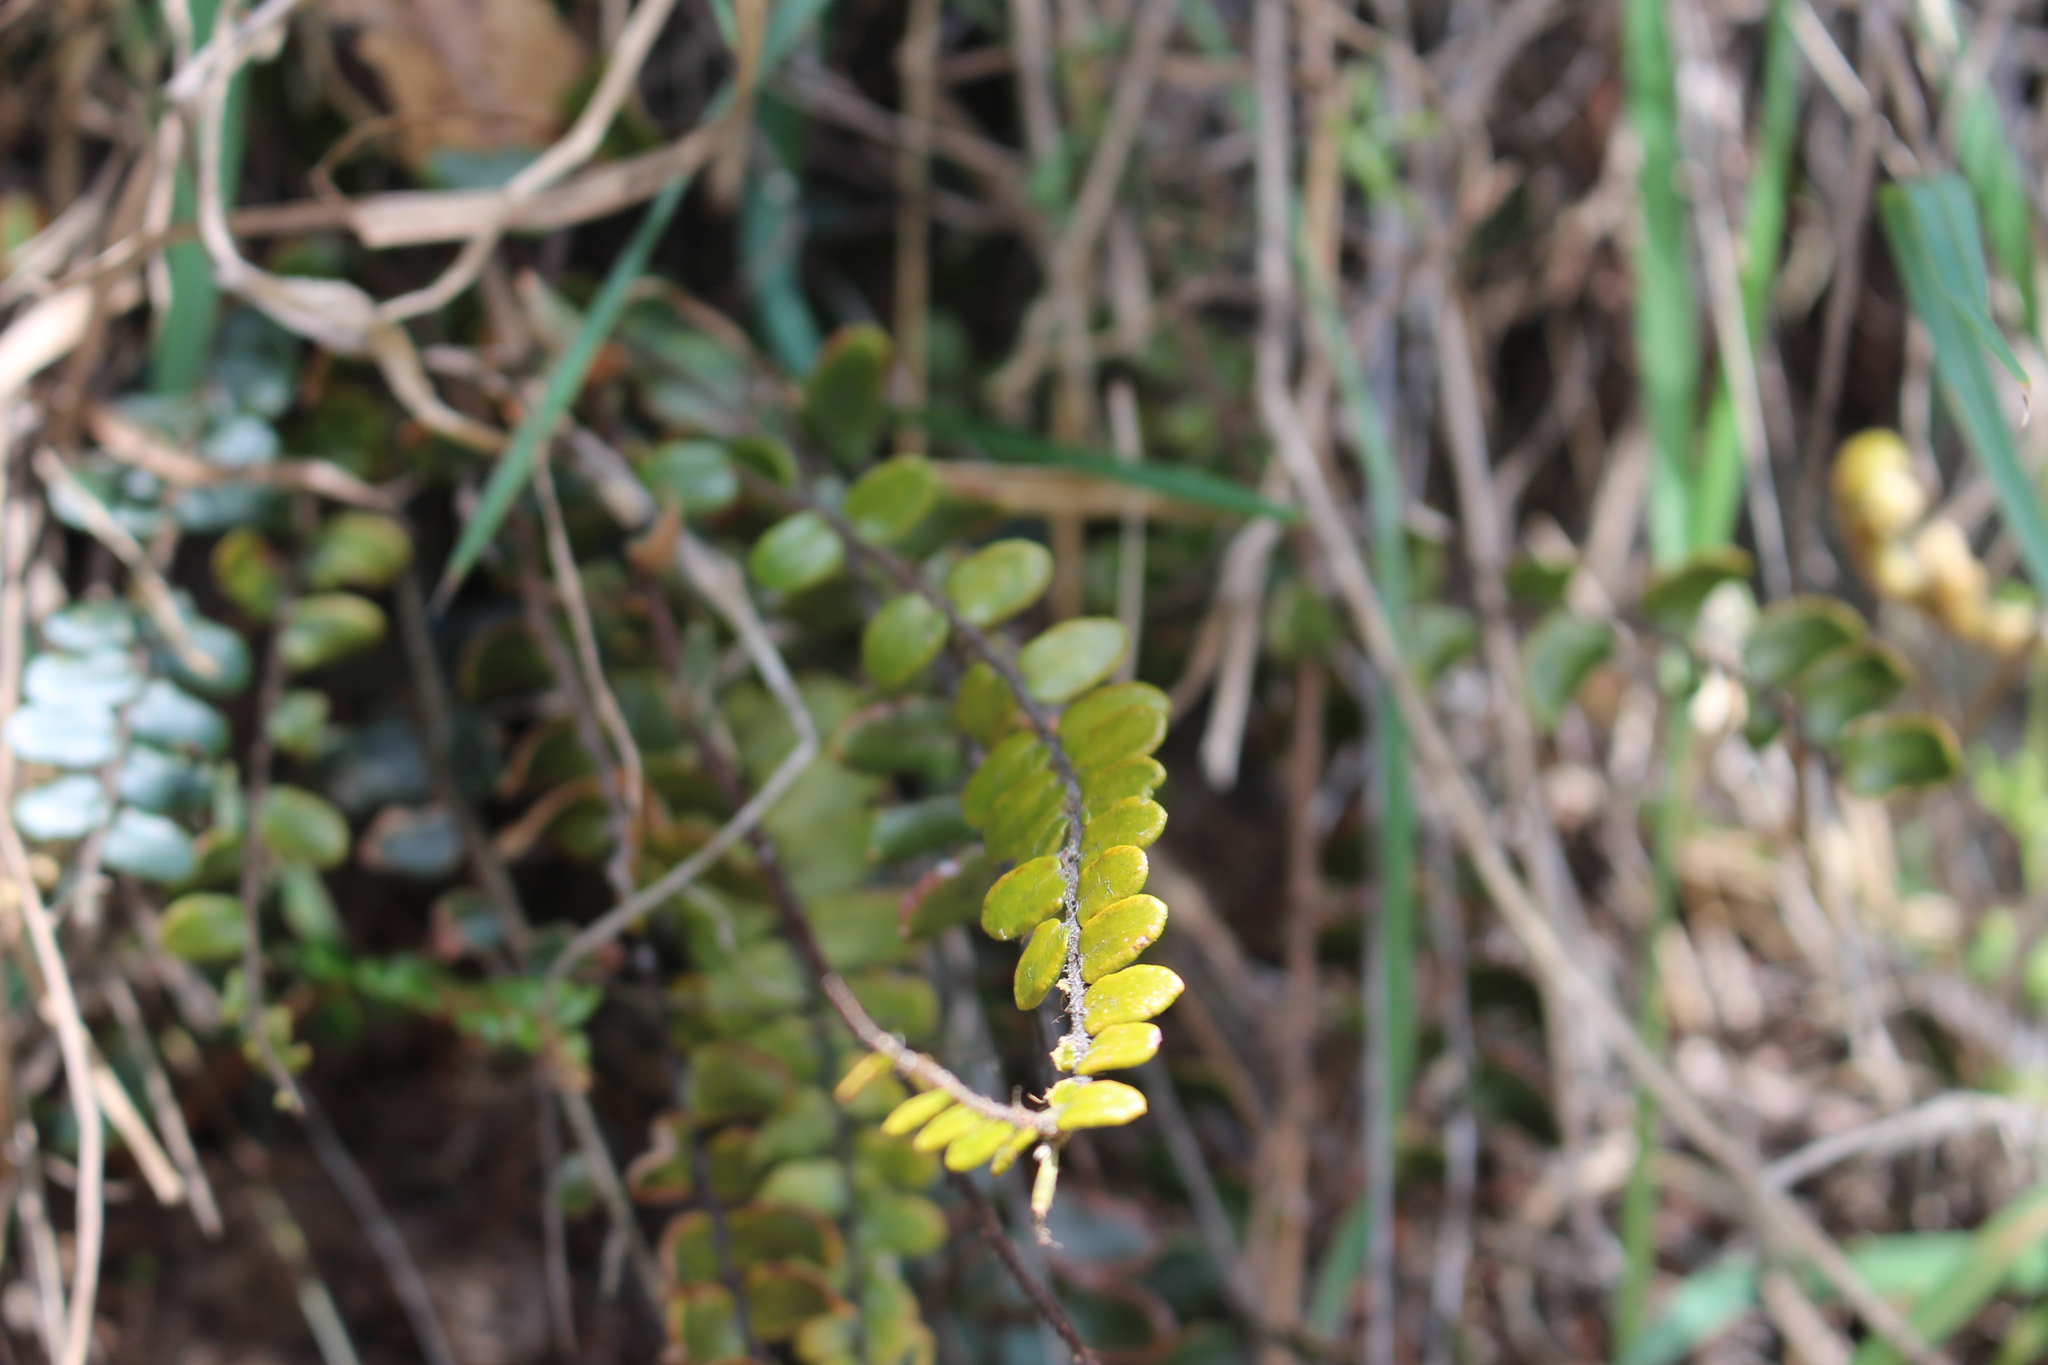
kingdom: Plantae
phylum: Tracheophyta
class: Polypodiopsida
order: Polypodiales
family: Pteridaceae
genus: Pellaea
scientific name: Pellaea rotundifolia
